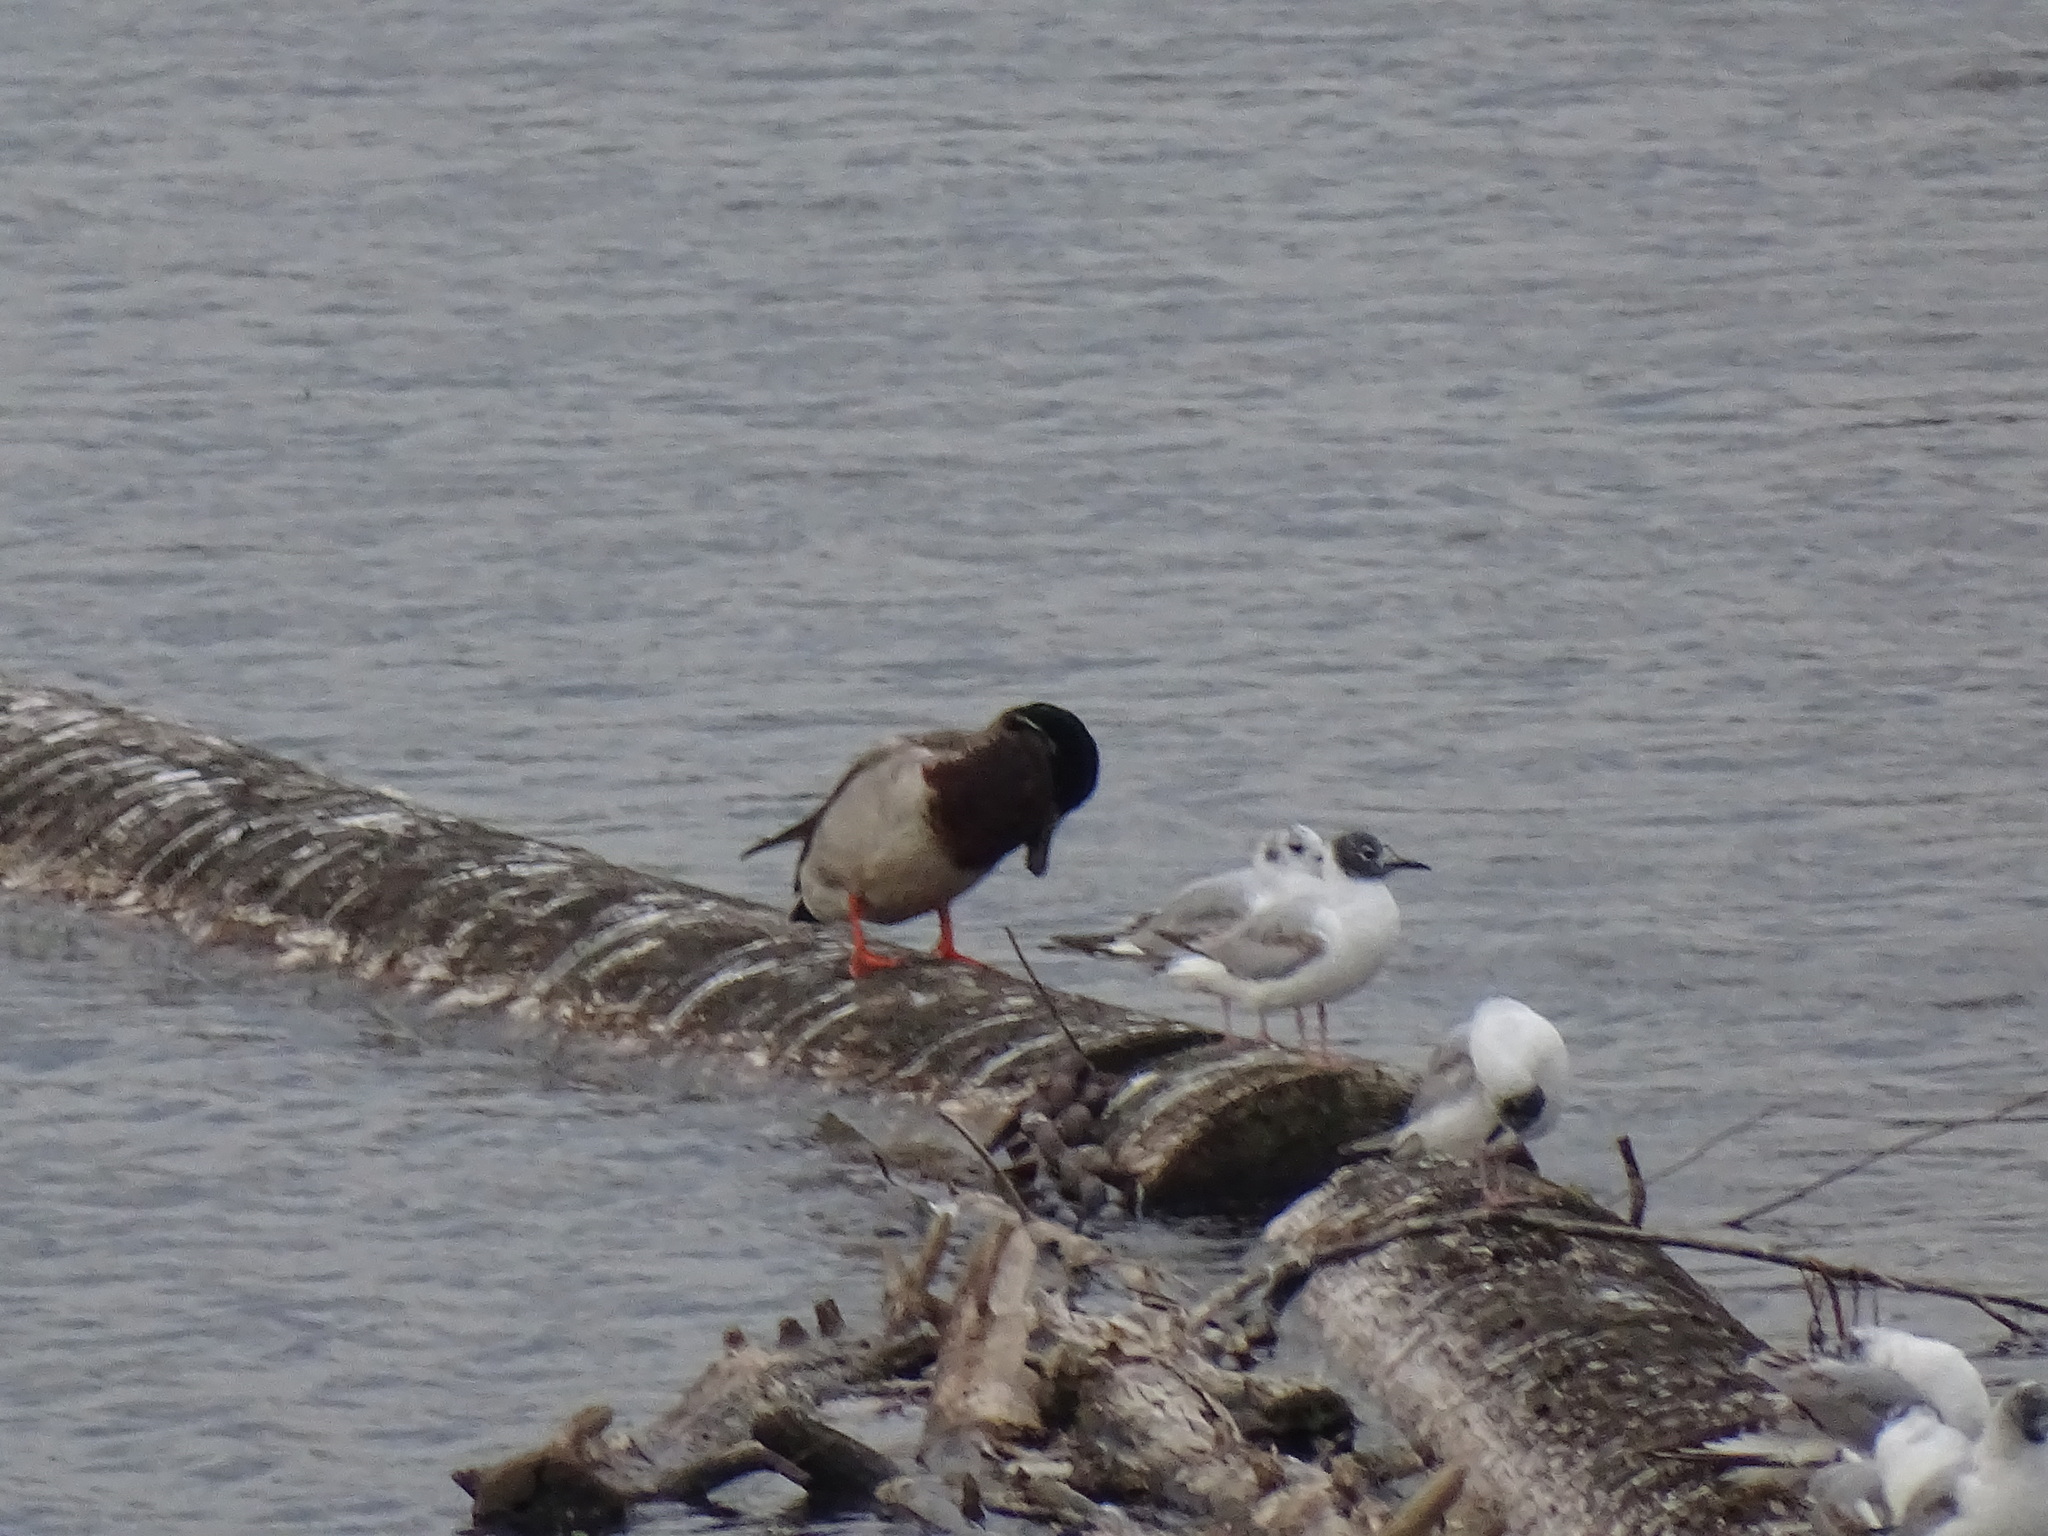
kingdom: Animalia
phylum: Chordata
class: Aves
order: Anseriformes
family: Anatidae
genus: Anas
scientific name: Anas platyrhynchos
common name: Mallard
